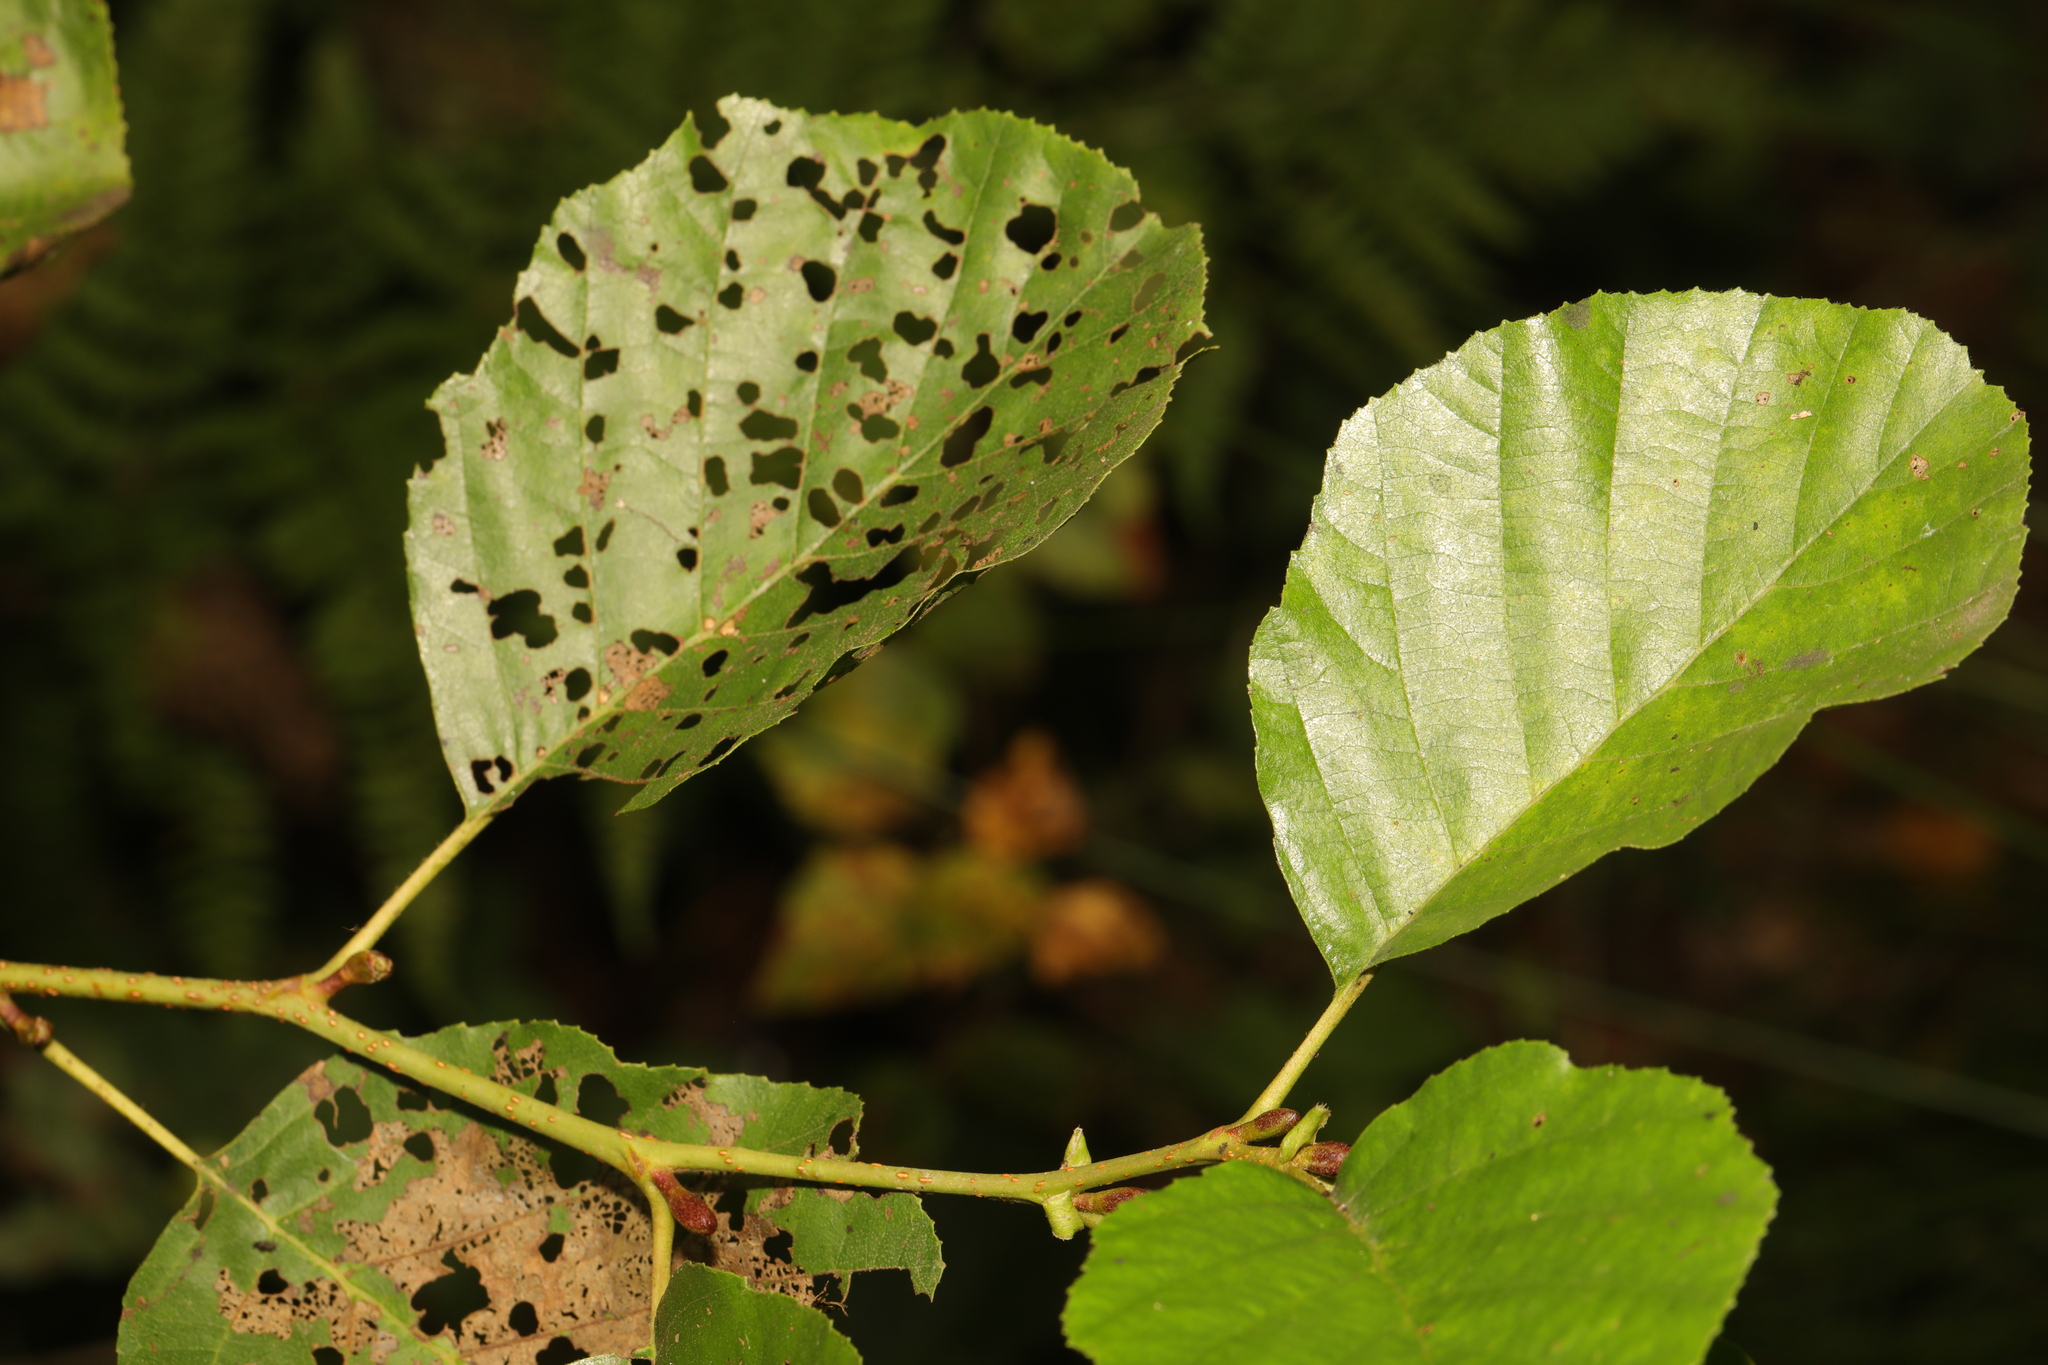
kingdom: Plantae
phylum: Tracheophyta
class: Magnoliopsida
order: Fagales
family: Betulaceae
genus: Alnus
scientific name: Alnus glutinosa
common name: Black alder
